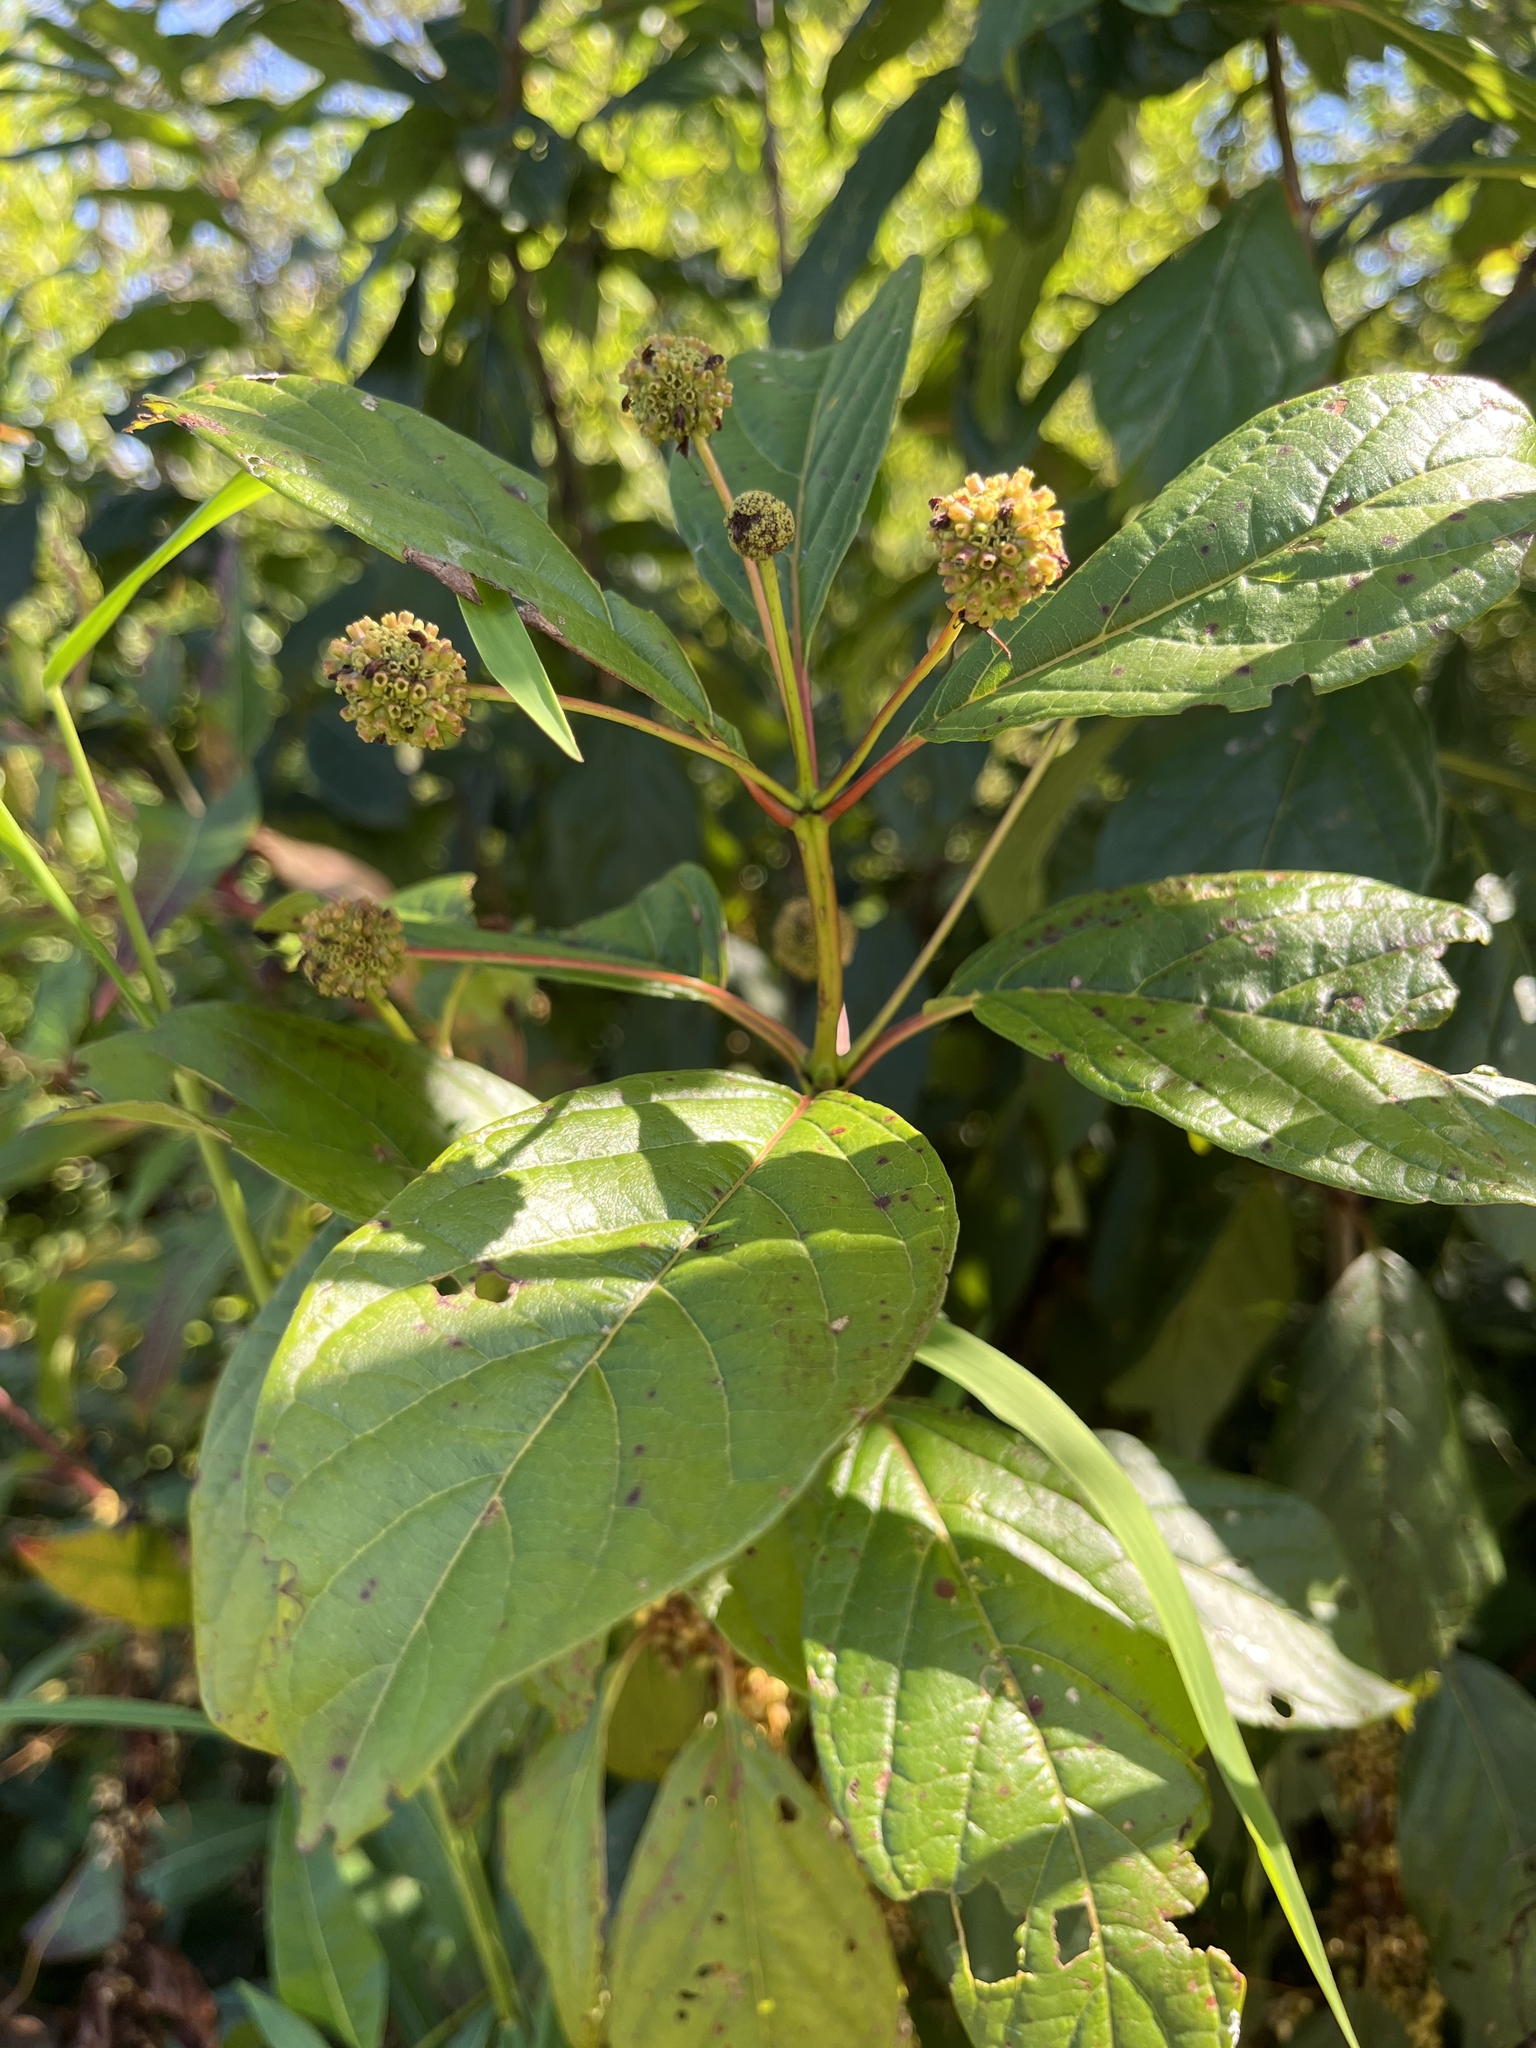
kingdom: Plantae
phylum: Tracheophyta
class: Magnoliopsida
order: Gentianales
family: Rubiaceae
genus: Cephalanthus
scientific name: Cephalanthus occidentalis
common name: Button-willow
